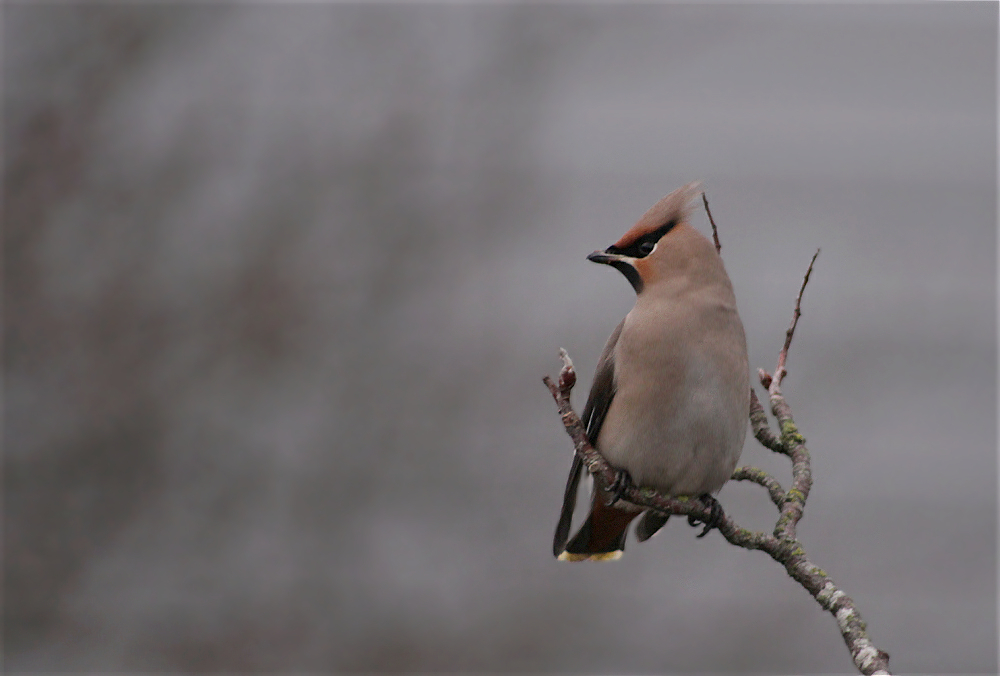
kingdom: Animalia
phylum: Chordata
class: Aves
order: Passeriformes
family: Bombycillidae
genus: Bombycilla
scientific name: Bombycilla garrulus
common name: Bohemian waxwing
